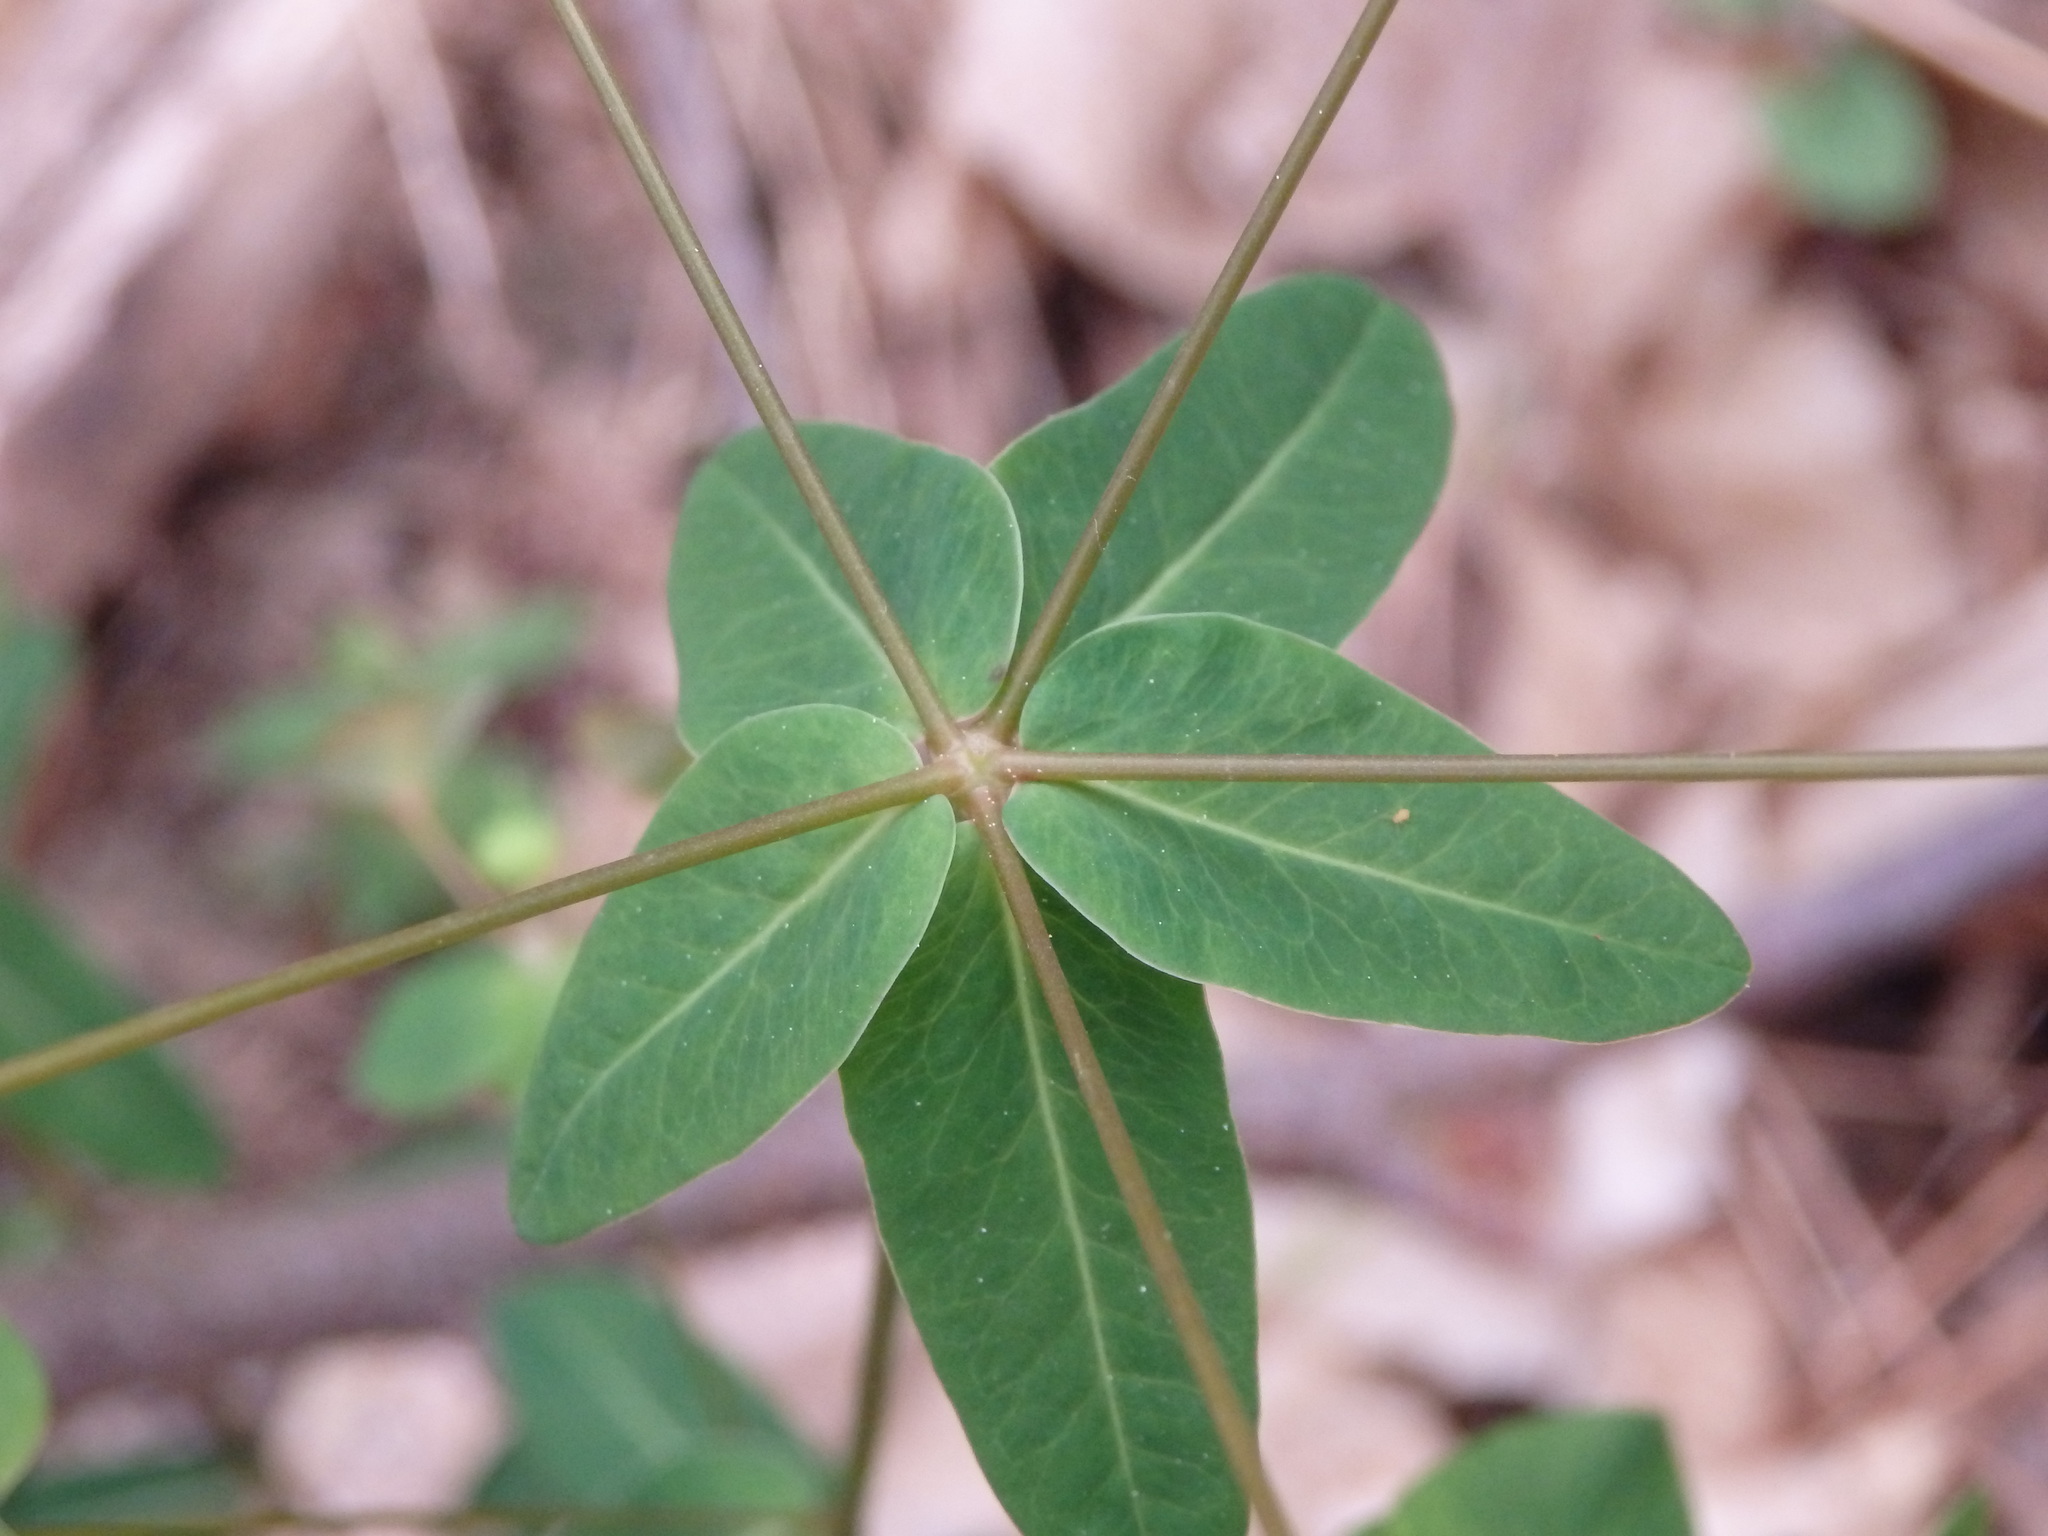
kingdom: Plantae
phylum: Tracheophyta
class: Magnoliopsida
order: Malpighiales
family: Euphorbiaceae
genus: Euphorbia
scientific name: Euphorbia dulcis
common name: Sweet spurge
